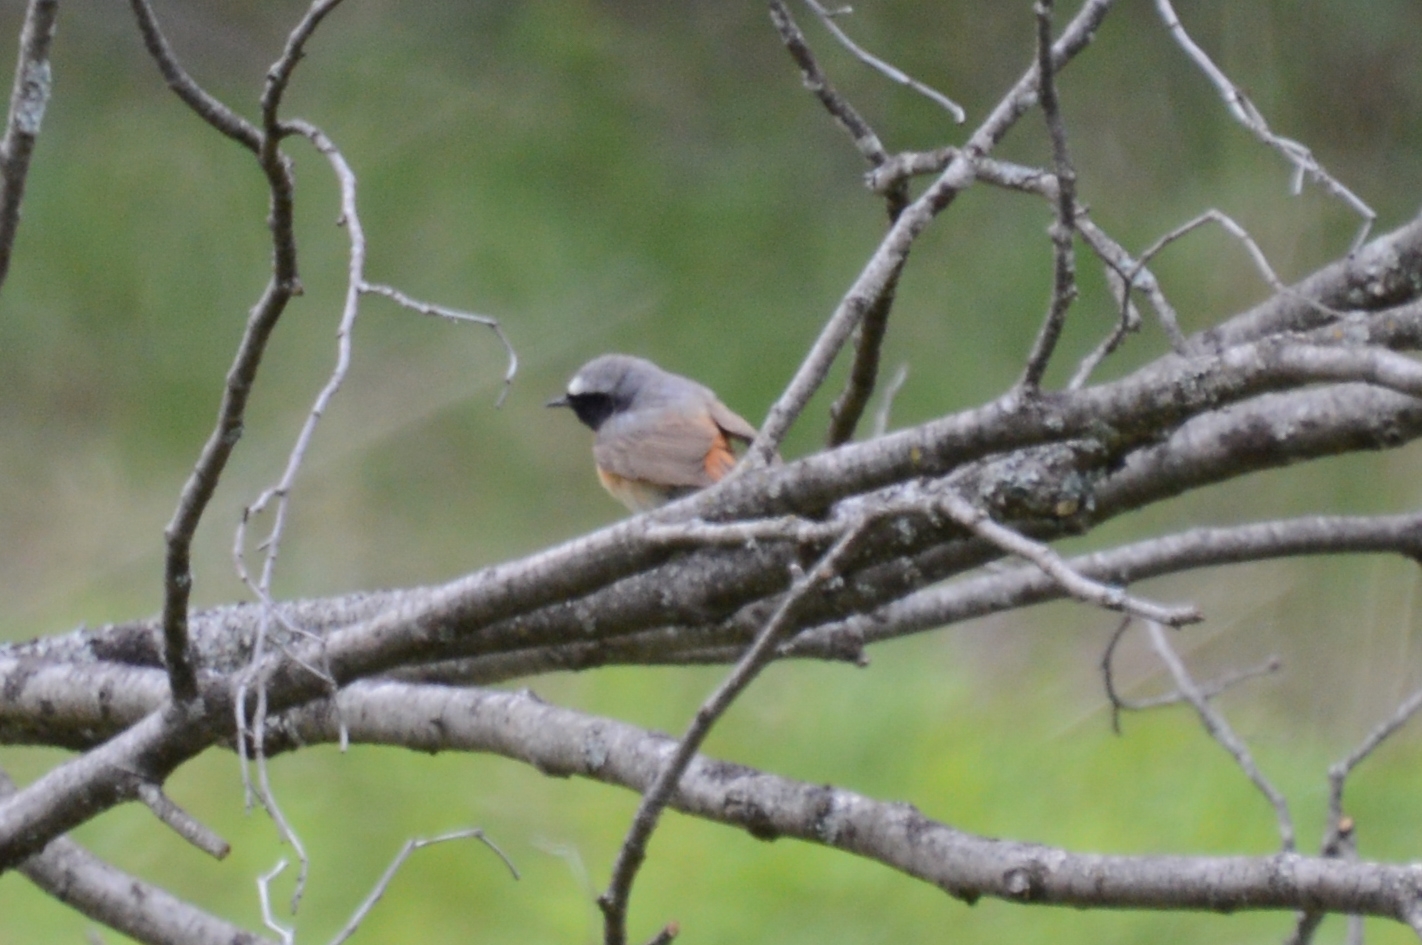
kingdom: Animalia
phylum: Chordata
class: Aves
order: Passeriformes
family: Muscicapidae
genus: Phoenicurus
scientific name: Phoenicurus phoenicurus
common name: Common redstart
